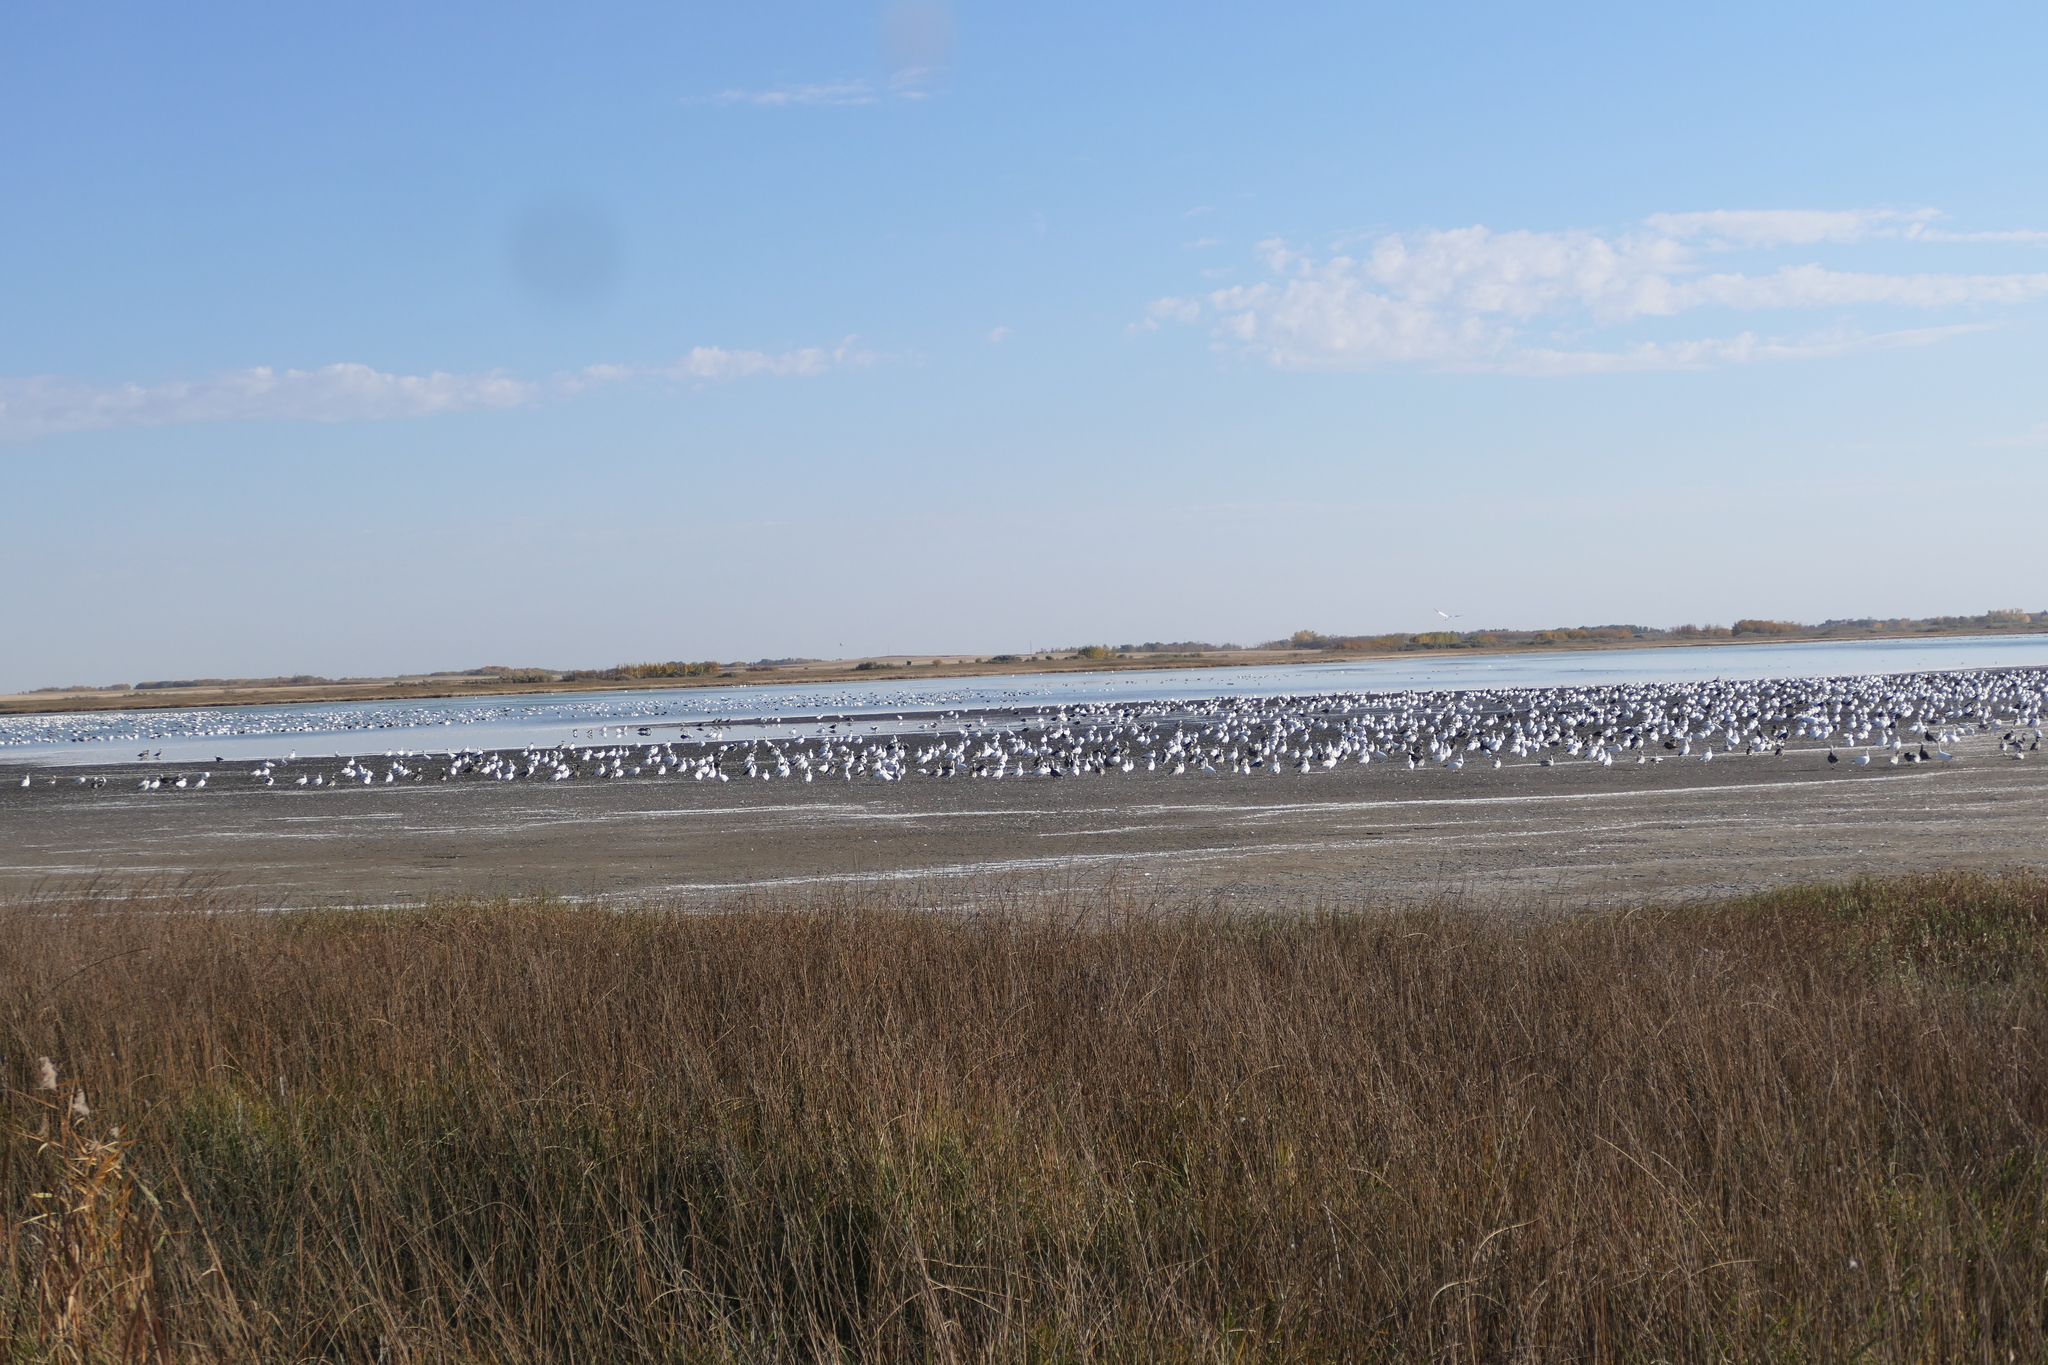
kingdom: Animalia
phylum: Chordata
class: Aves
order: Anseriformes
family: Anatidae
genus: Anser
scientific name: Anser caerulescens
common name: Snow goose
